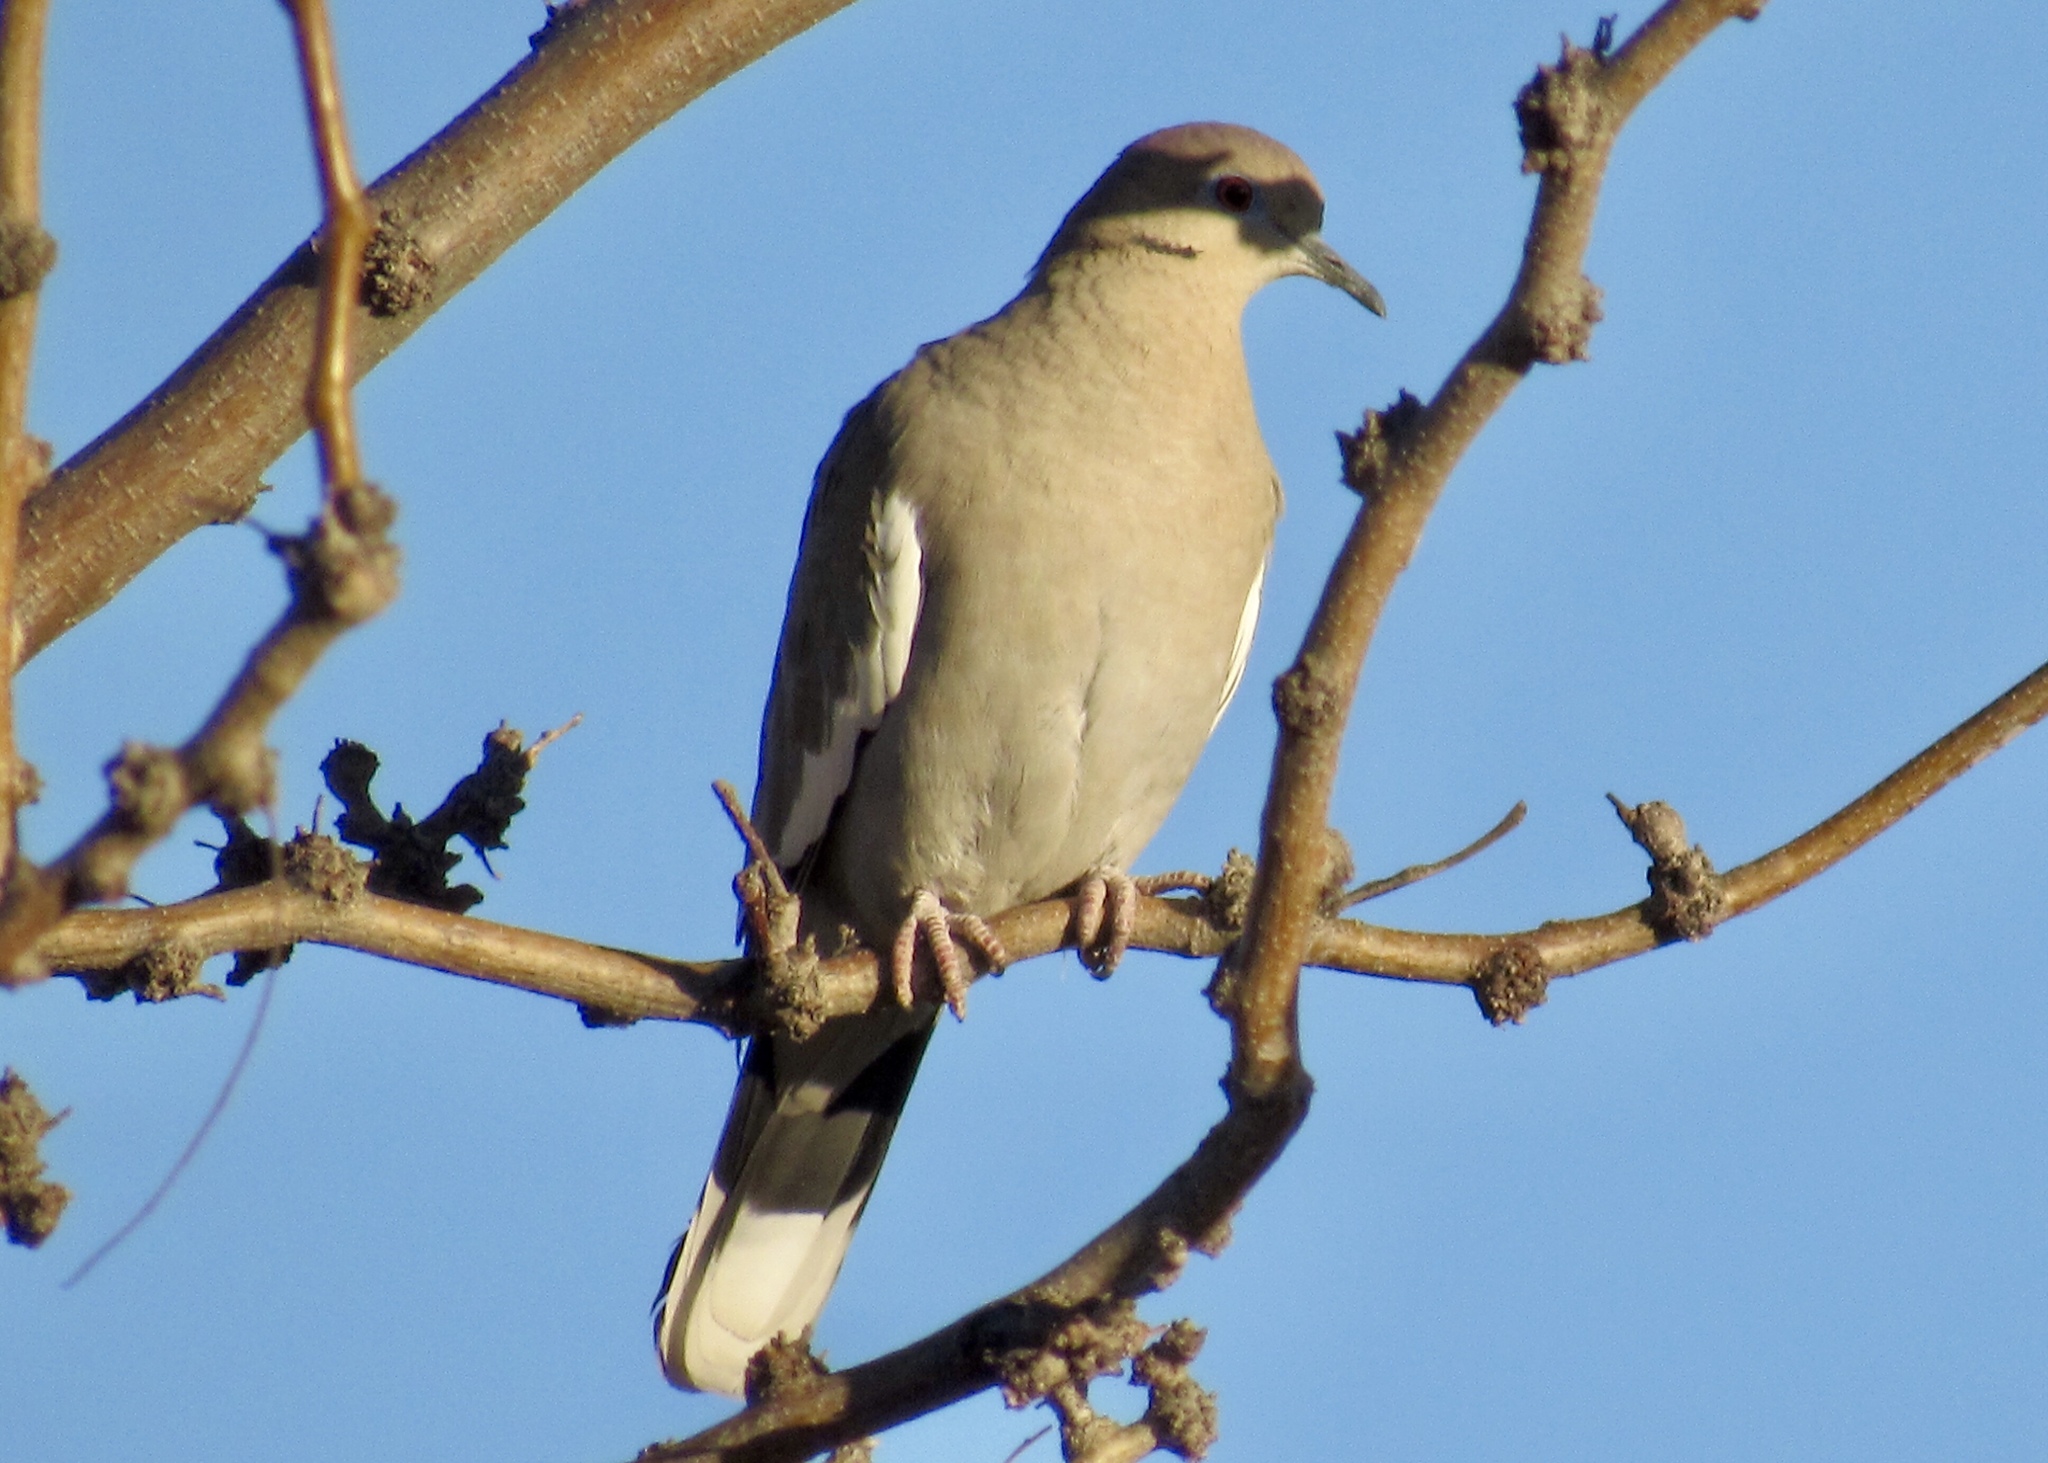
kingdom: Animalia
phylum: Chordata
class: Aves
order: Columbiformes
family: Columbidae
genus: Zenaida
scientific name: Zenaida asiatica
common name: White-winged dove
